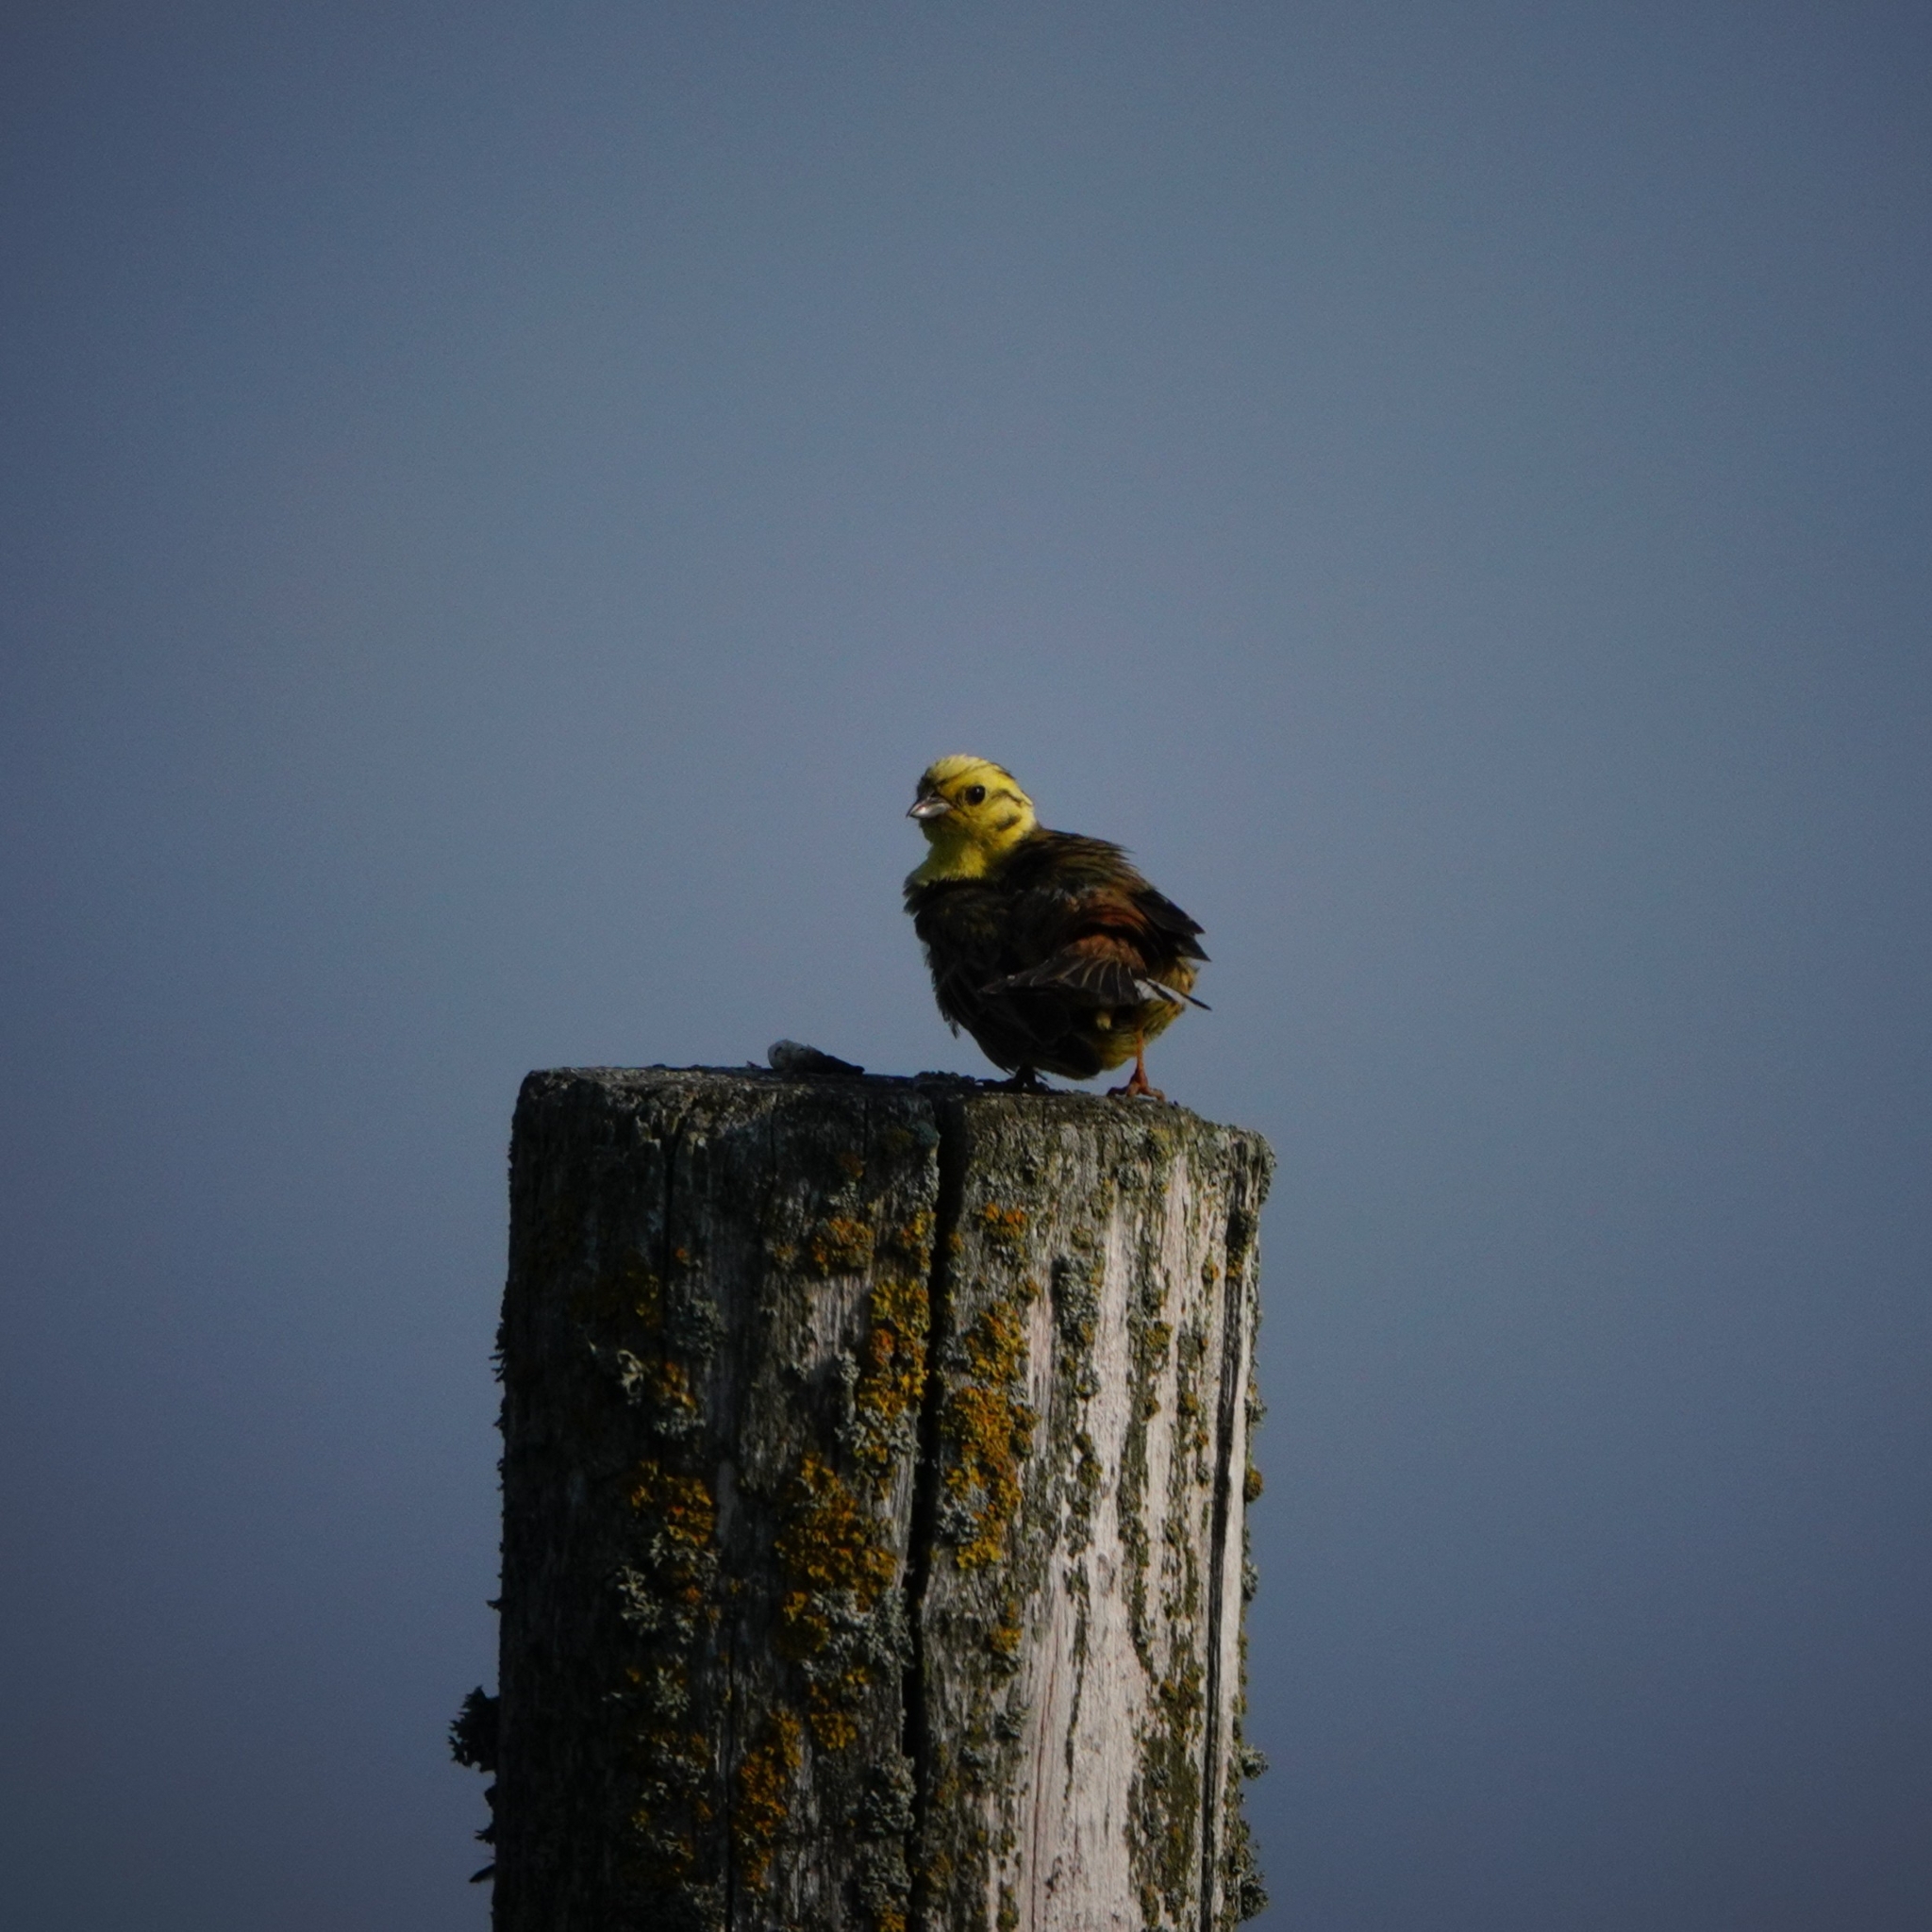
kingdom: Animalia
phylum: Chordata
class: Aves
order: Passeriformes
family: Emberizidae
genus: Emberiza
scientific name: Emberiza citrinella
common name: Yellowhammer
